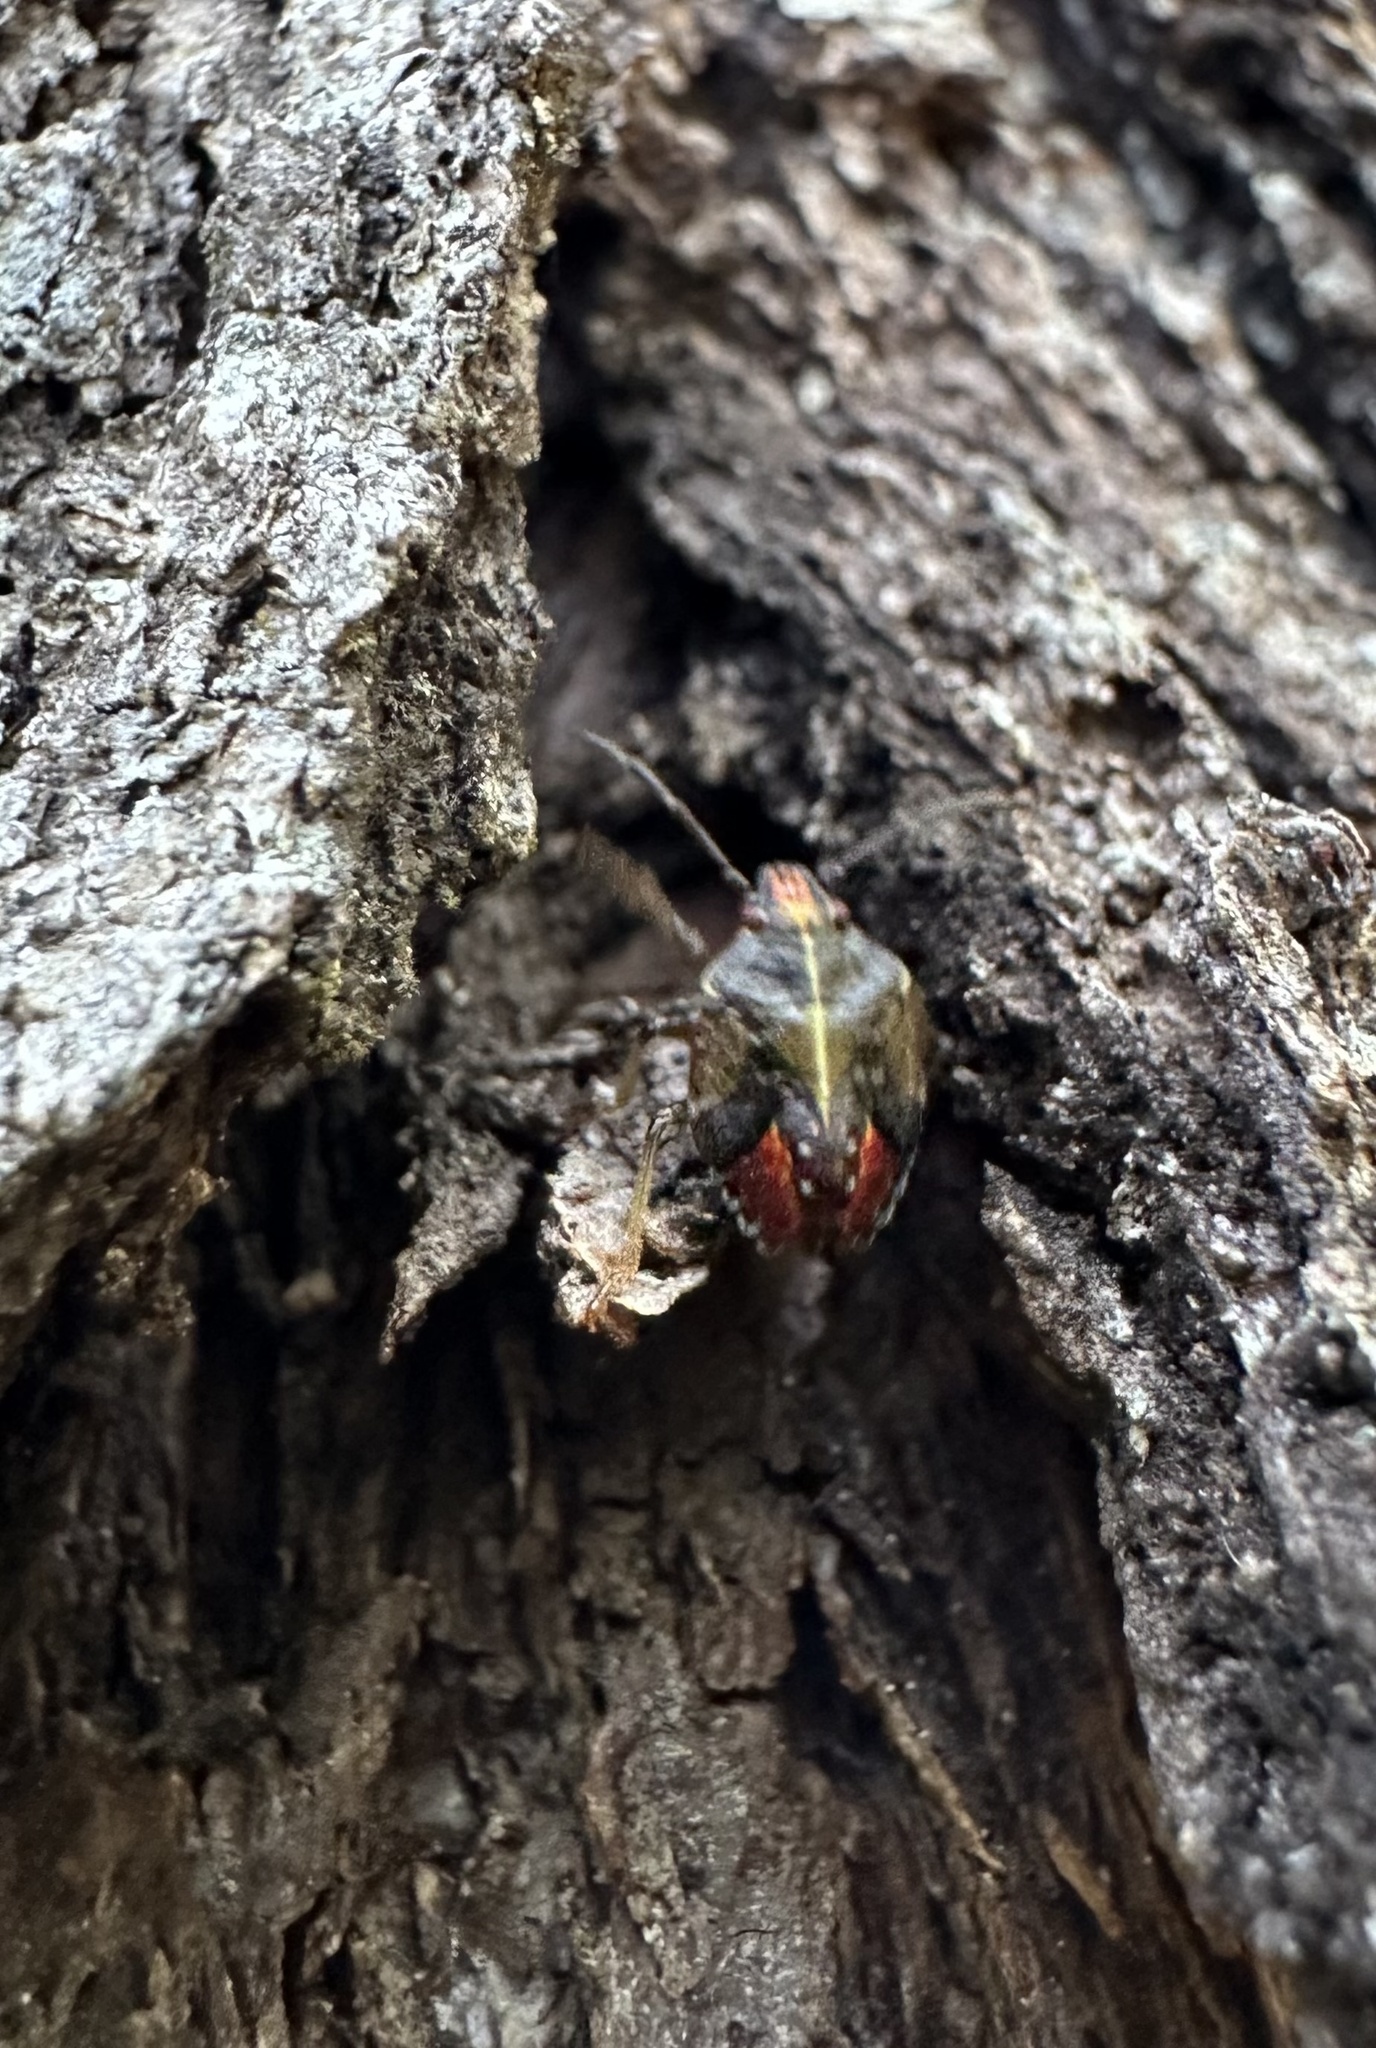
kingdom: Animalia
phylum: Arthropoda
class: Insecta
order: Hemiptera
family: Acanthosomatidae
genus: Sinopla
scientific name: Sinopla perpunctatus
